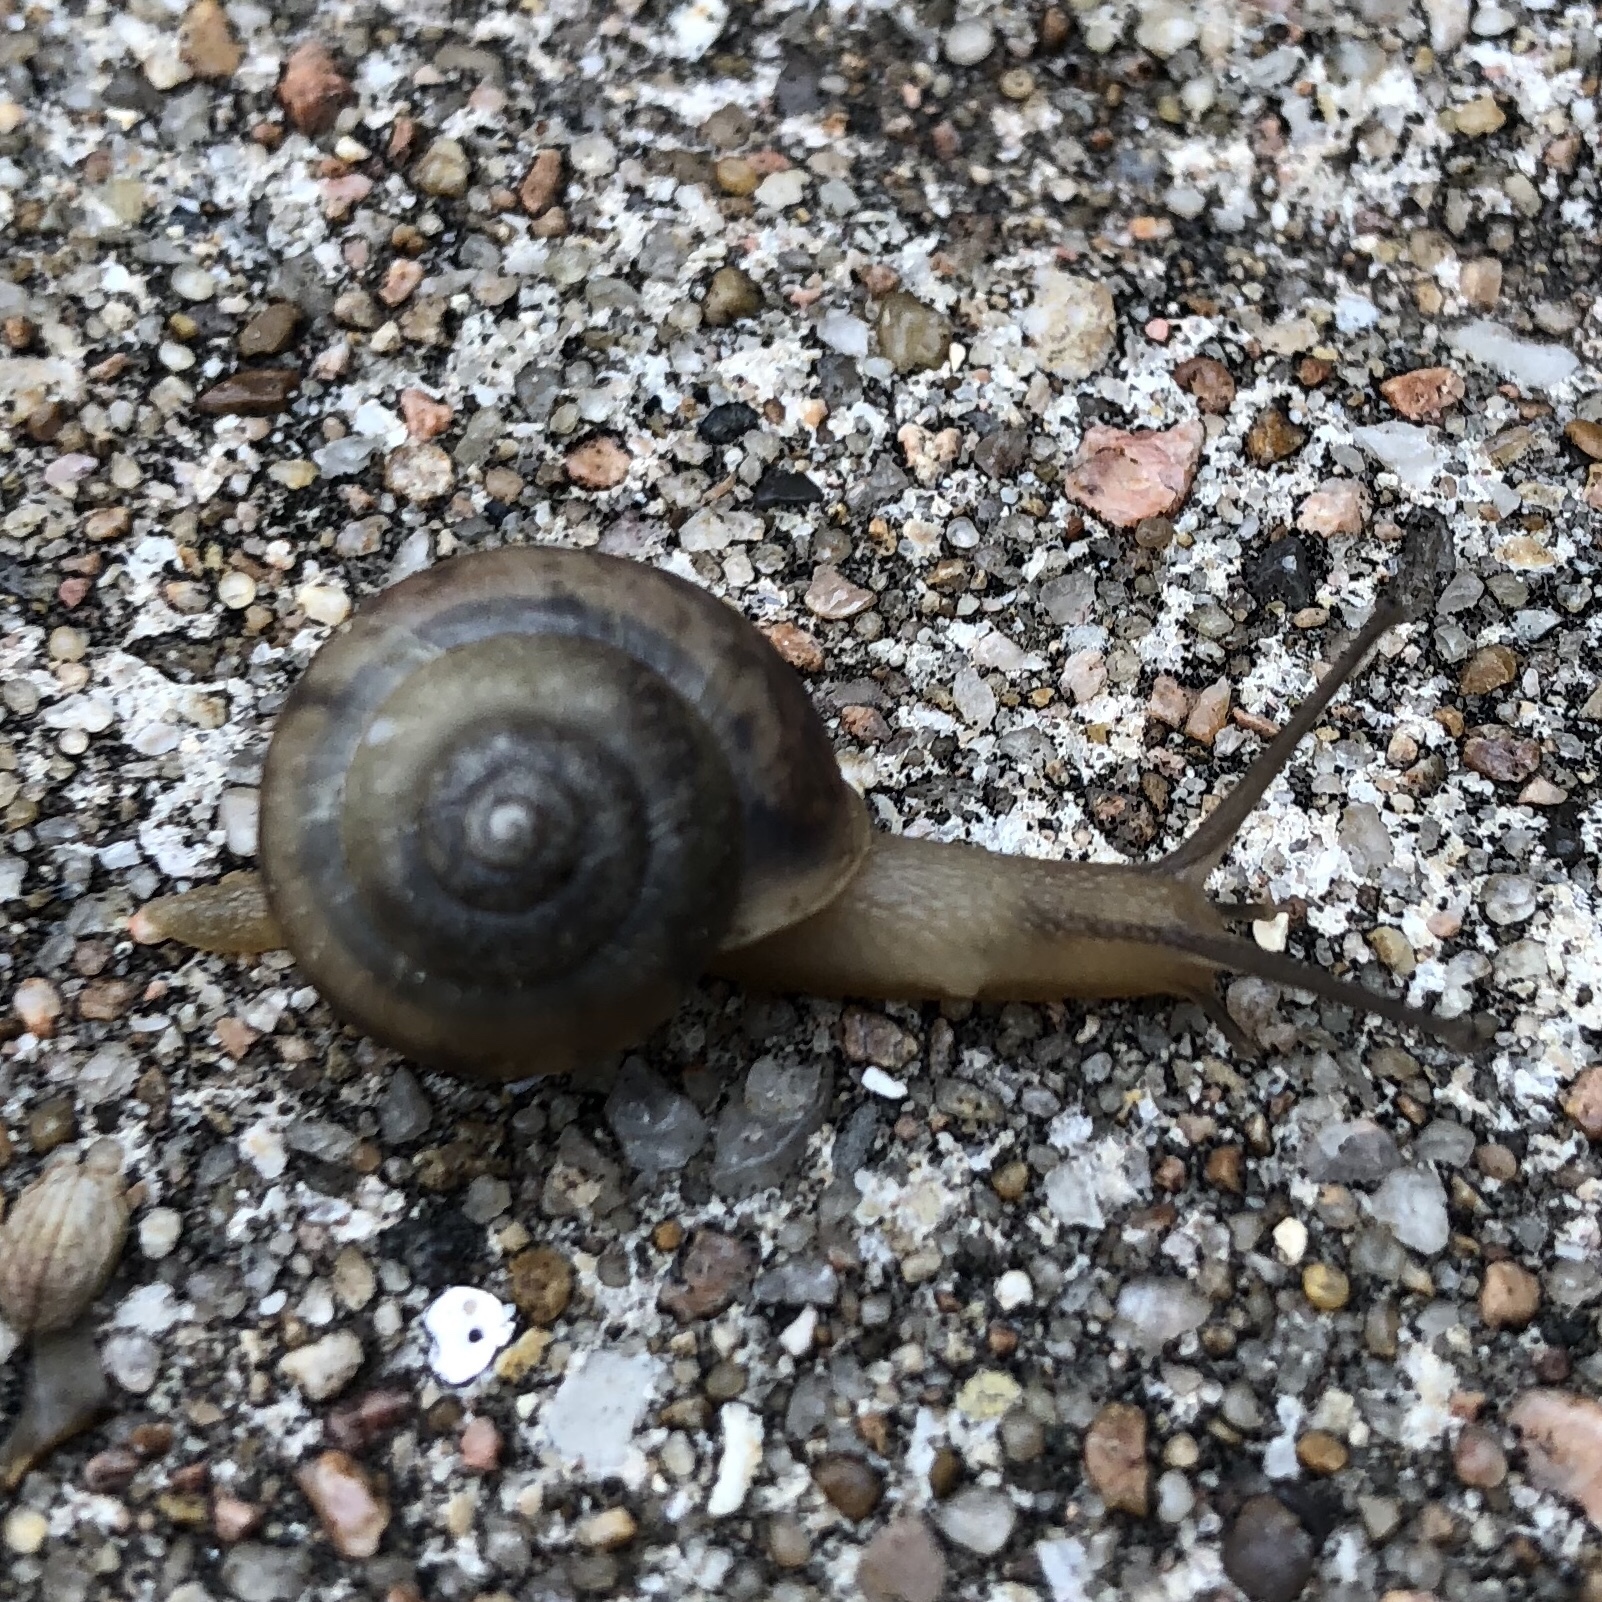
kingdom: Animalia
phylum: Mollusca
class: Gastropoda
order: Stylommatophora
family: Camaenidae
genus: Bradybaena
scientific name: Bradybaena similaris
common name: Asian trampsnail
